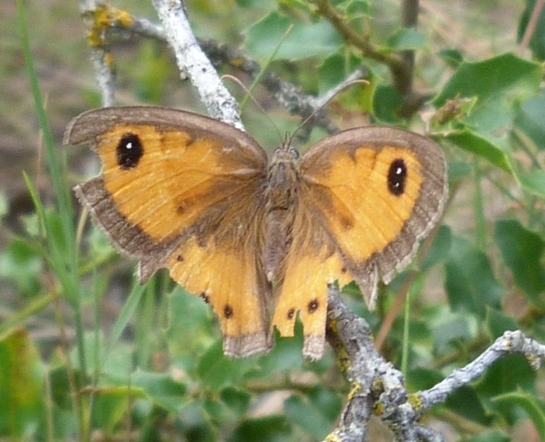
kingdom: Animalia
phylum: Arthropoda
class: Insecta
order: Lepidoptera
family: Nymphalidae
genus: Pyronia
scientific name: Pyronia bathseba
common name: Spanish gatekeeper
